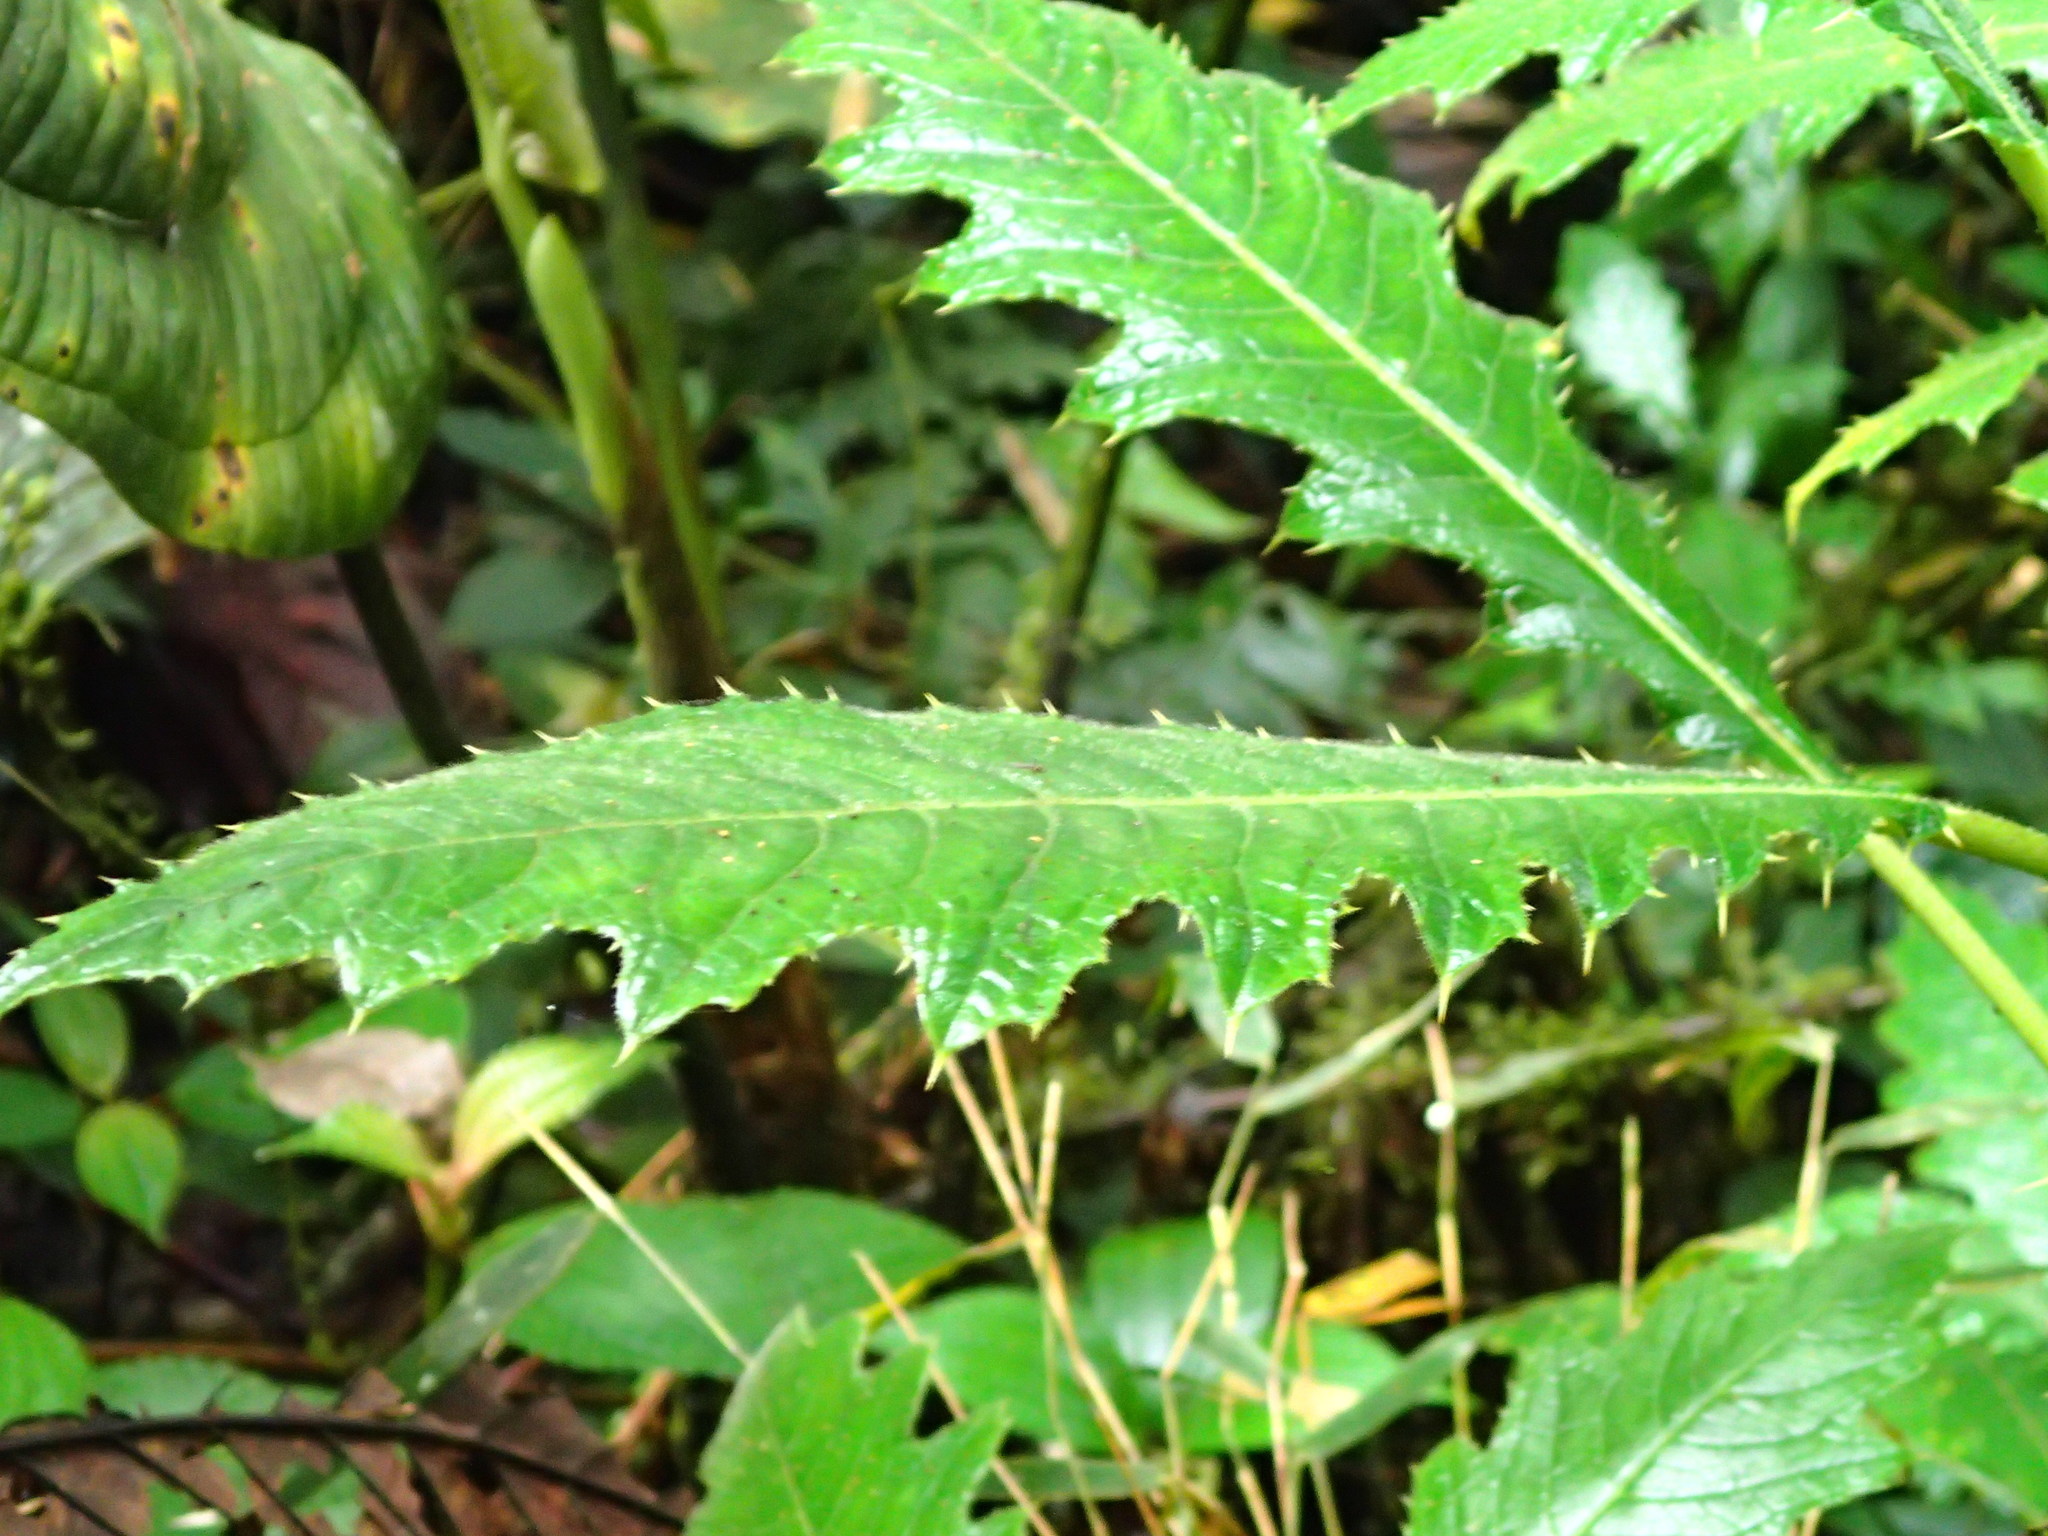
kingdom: Plantae
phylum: Tracheophyta
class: Magnoliopsida
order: Lamiales
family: Acanthaceae
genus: Aphelandra
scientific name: Aphelandra acanthus
